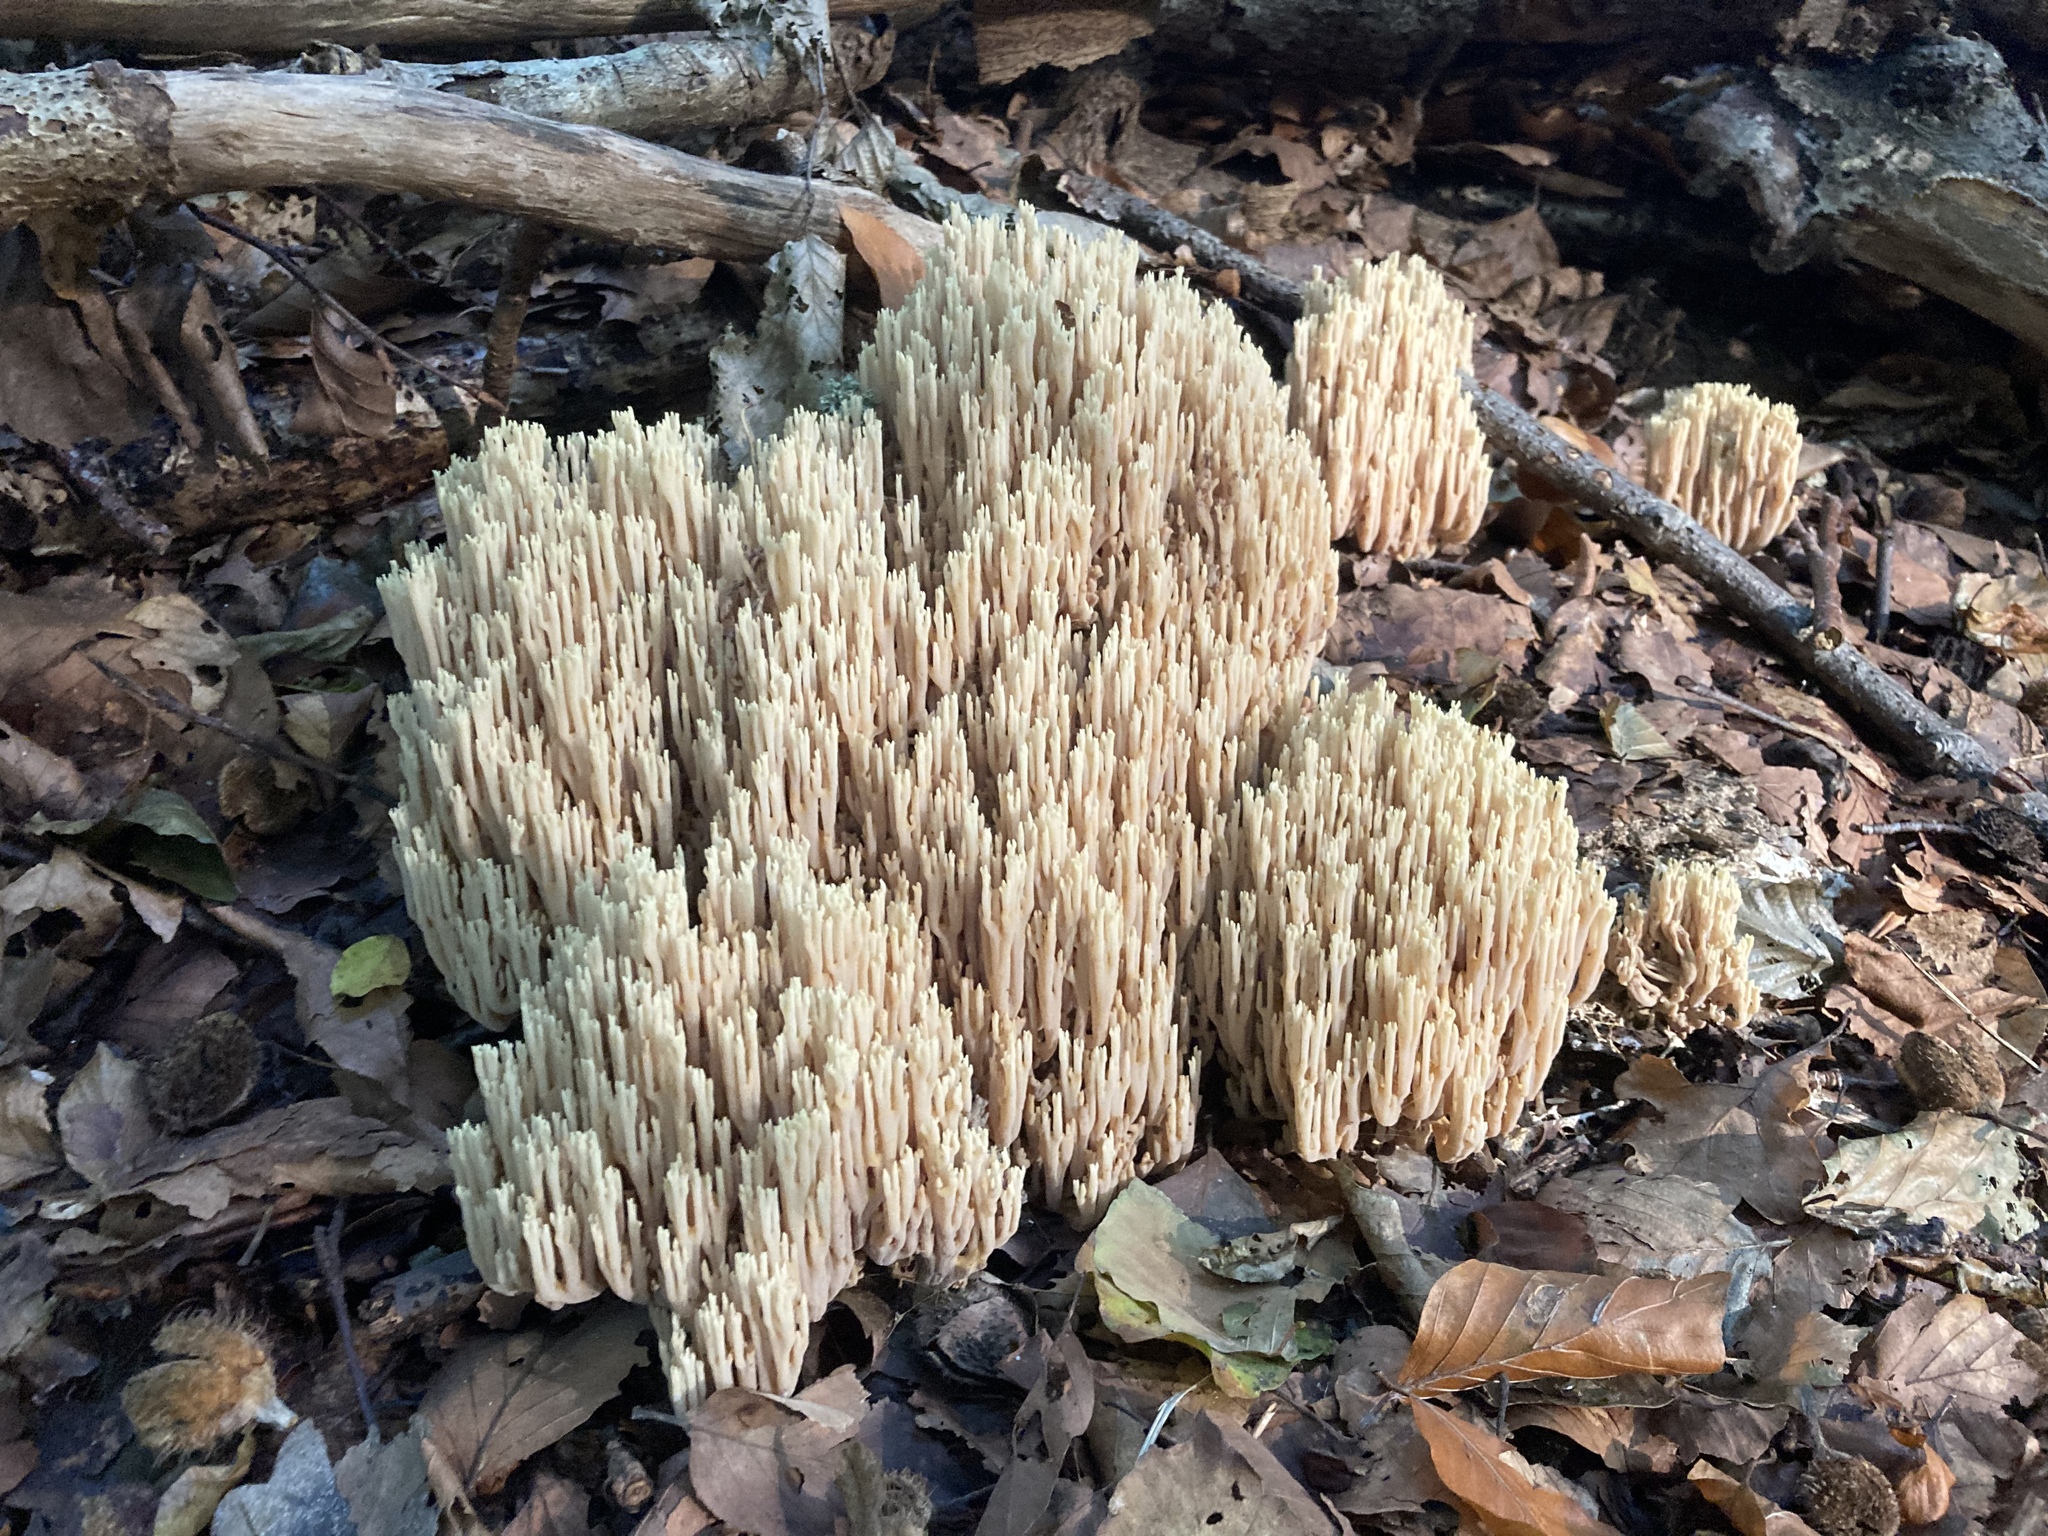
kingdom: Fungi
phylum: Basidiomycota
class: Agaricomycetes
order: Gomphales
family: Gomphaceae
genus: Ramaria
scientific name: Ramaria stricta
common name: Upright coral
